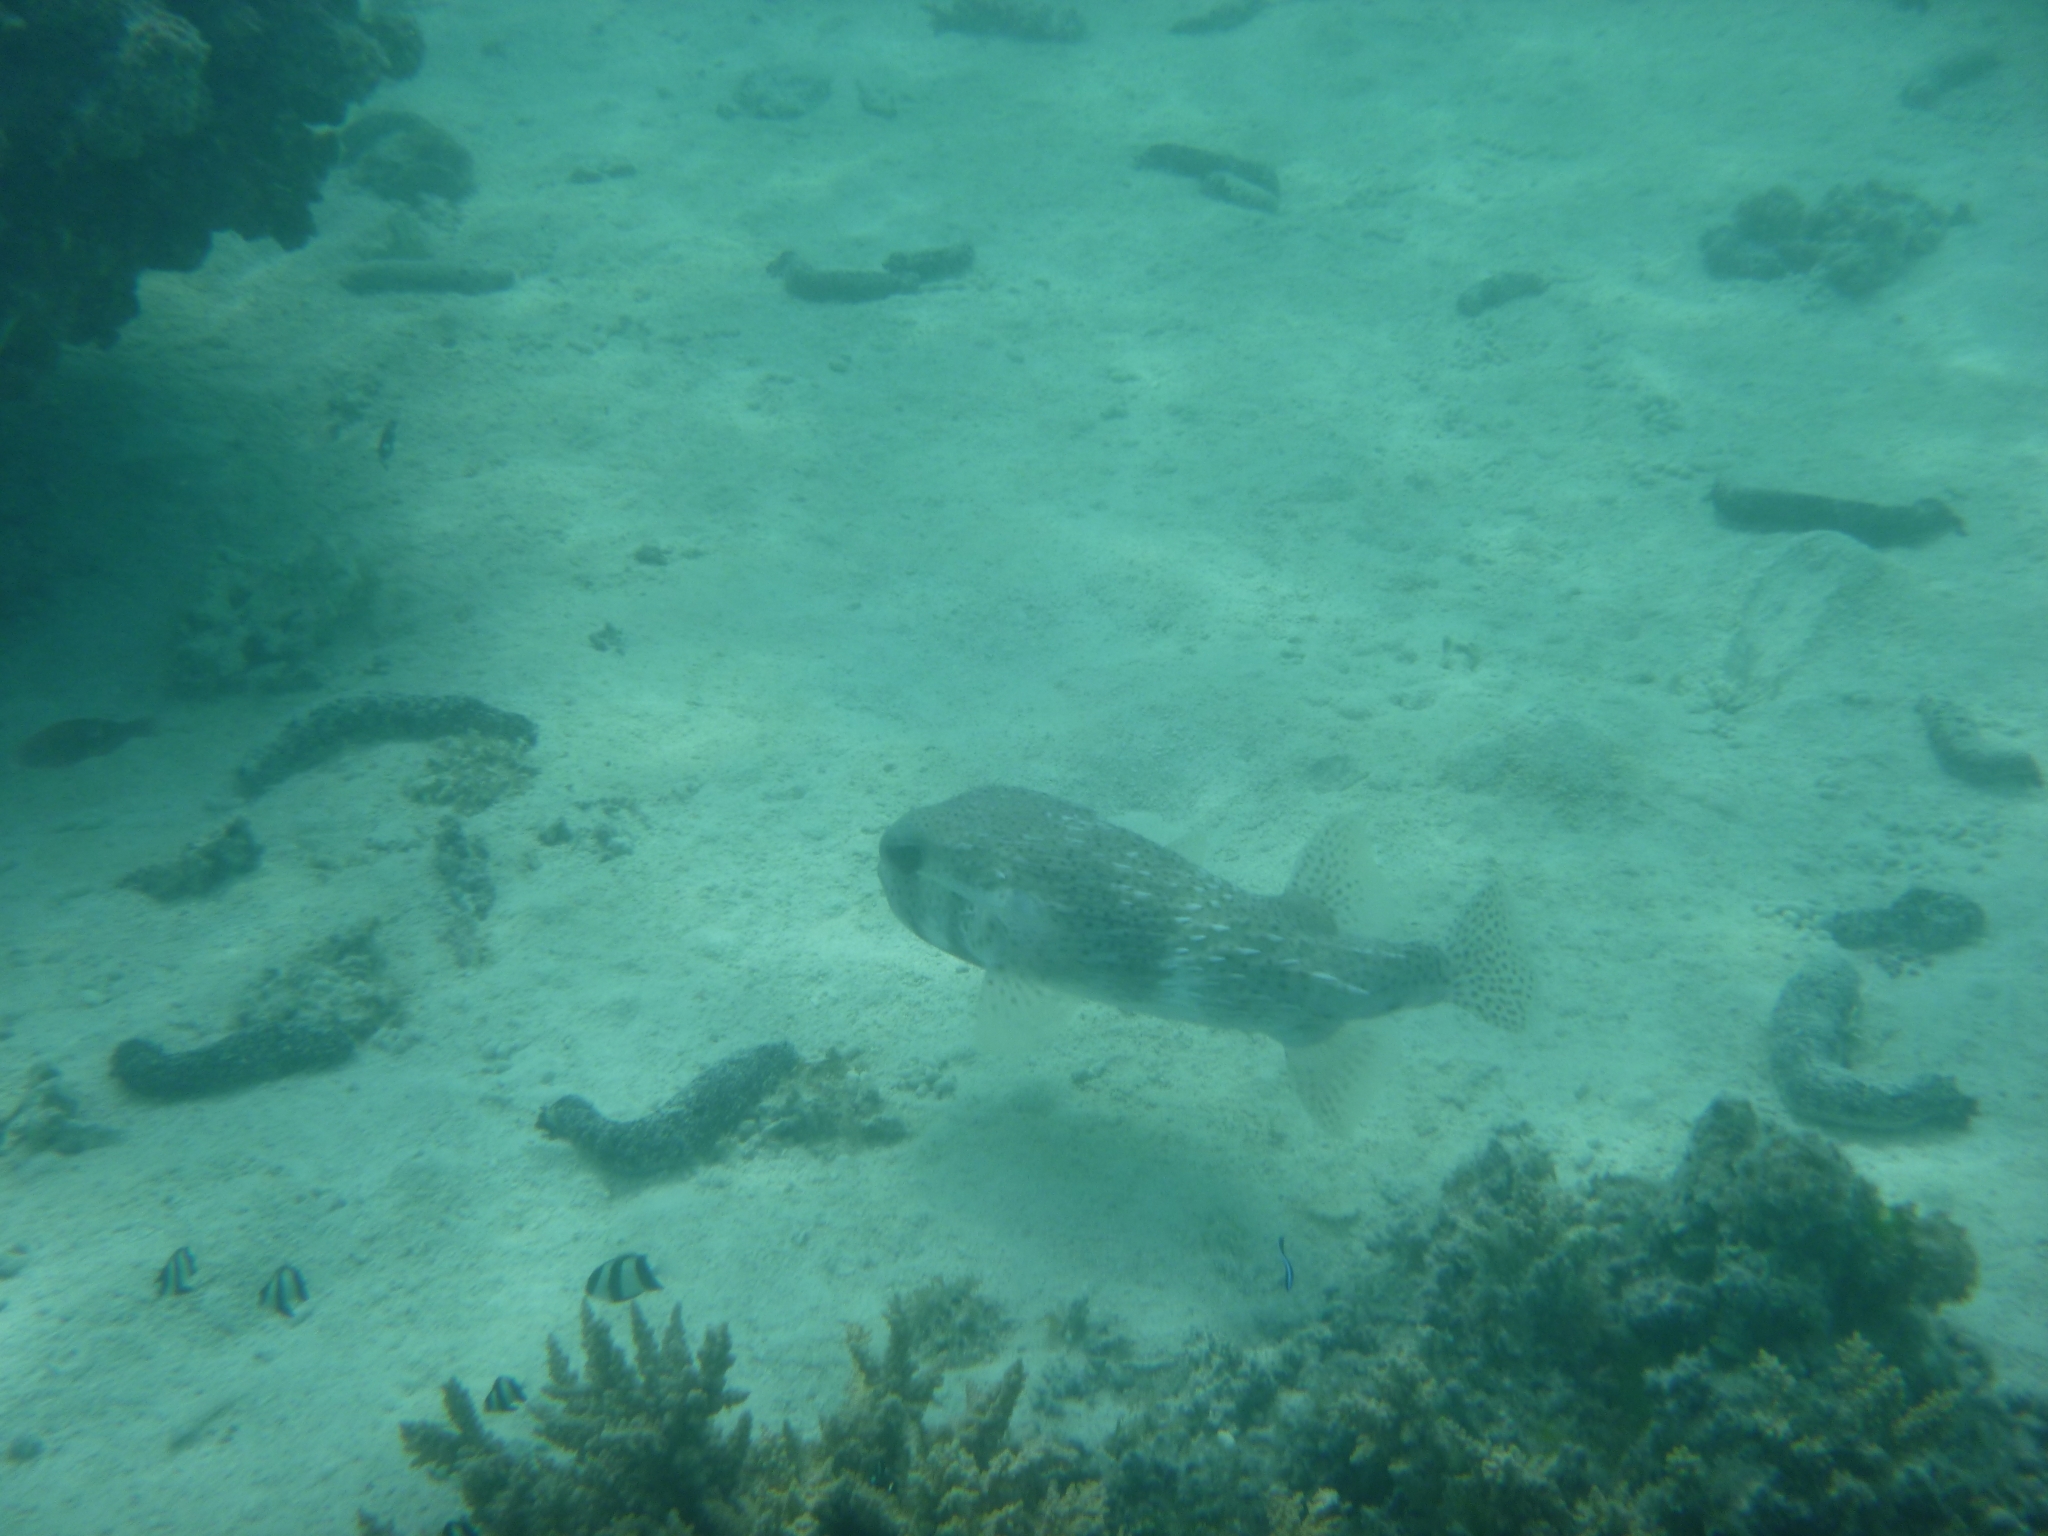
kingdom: Animalia
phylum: Chordata
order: Tetraodontiformes
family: Diodontidae
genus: Diodon
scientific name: Diodon hystrix
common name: Giant porcupinefish
